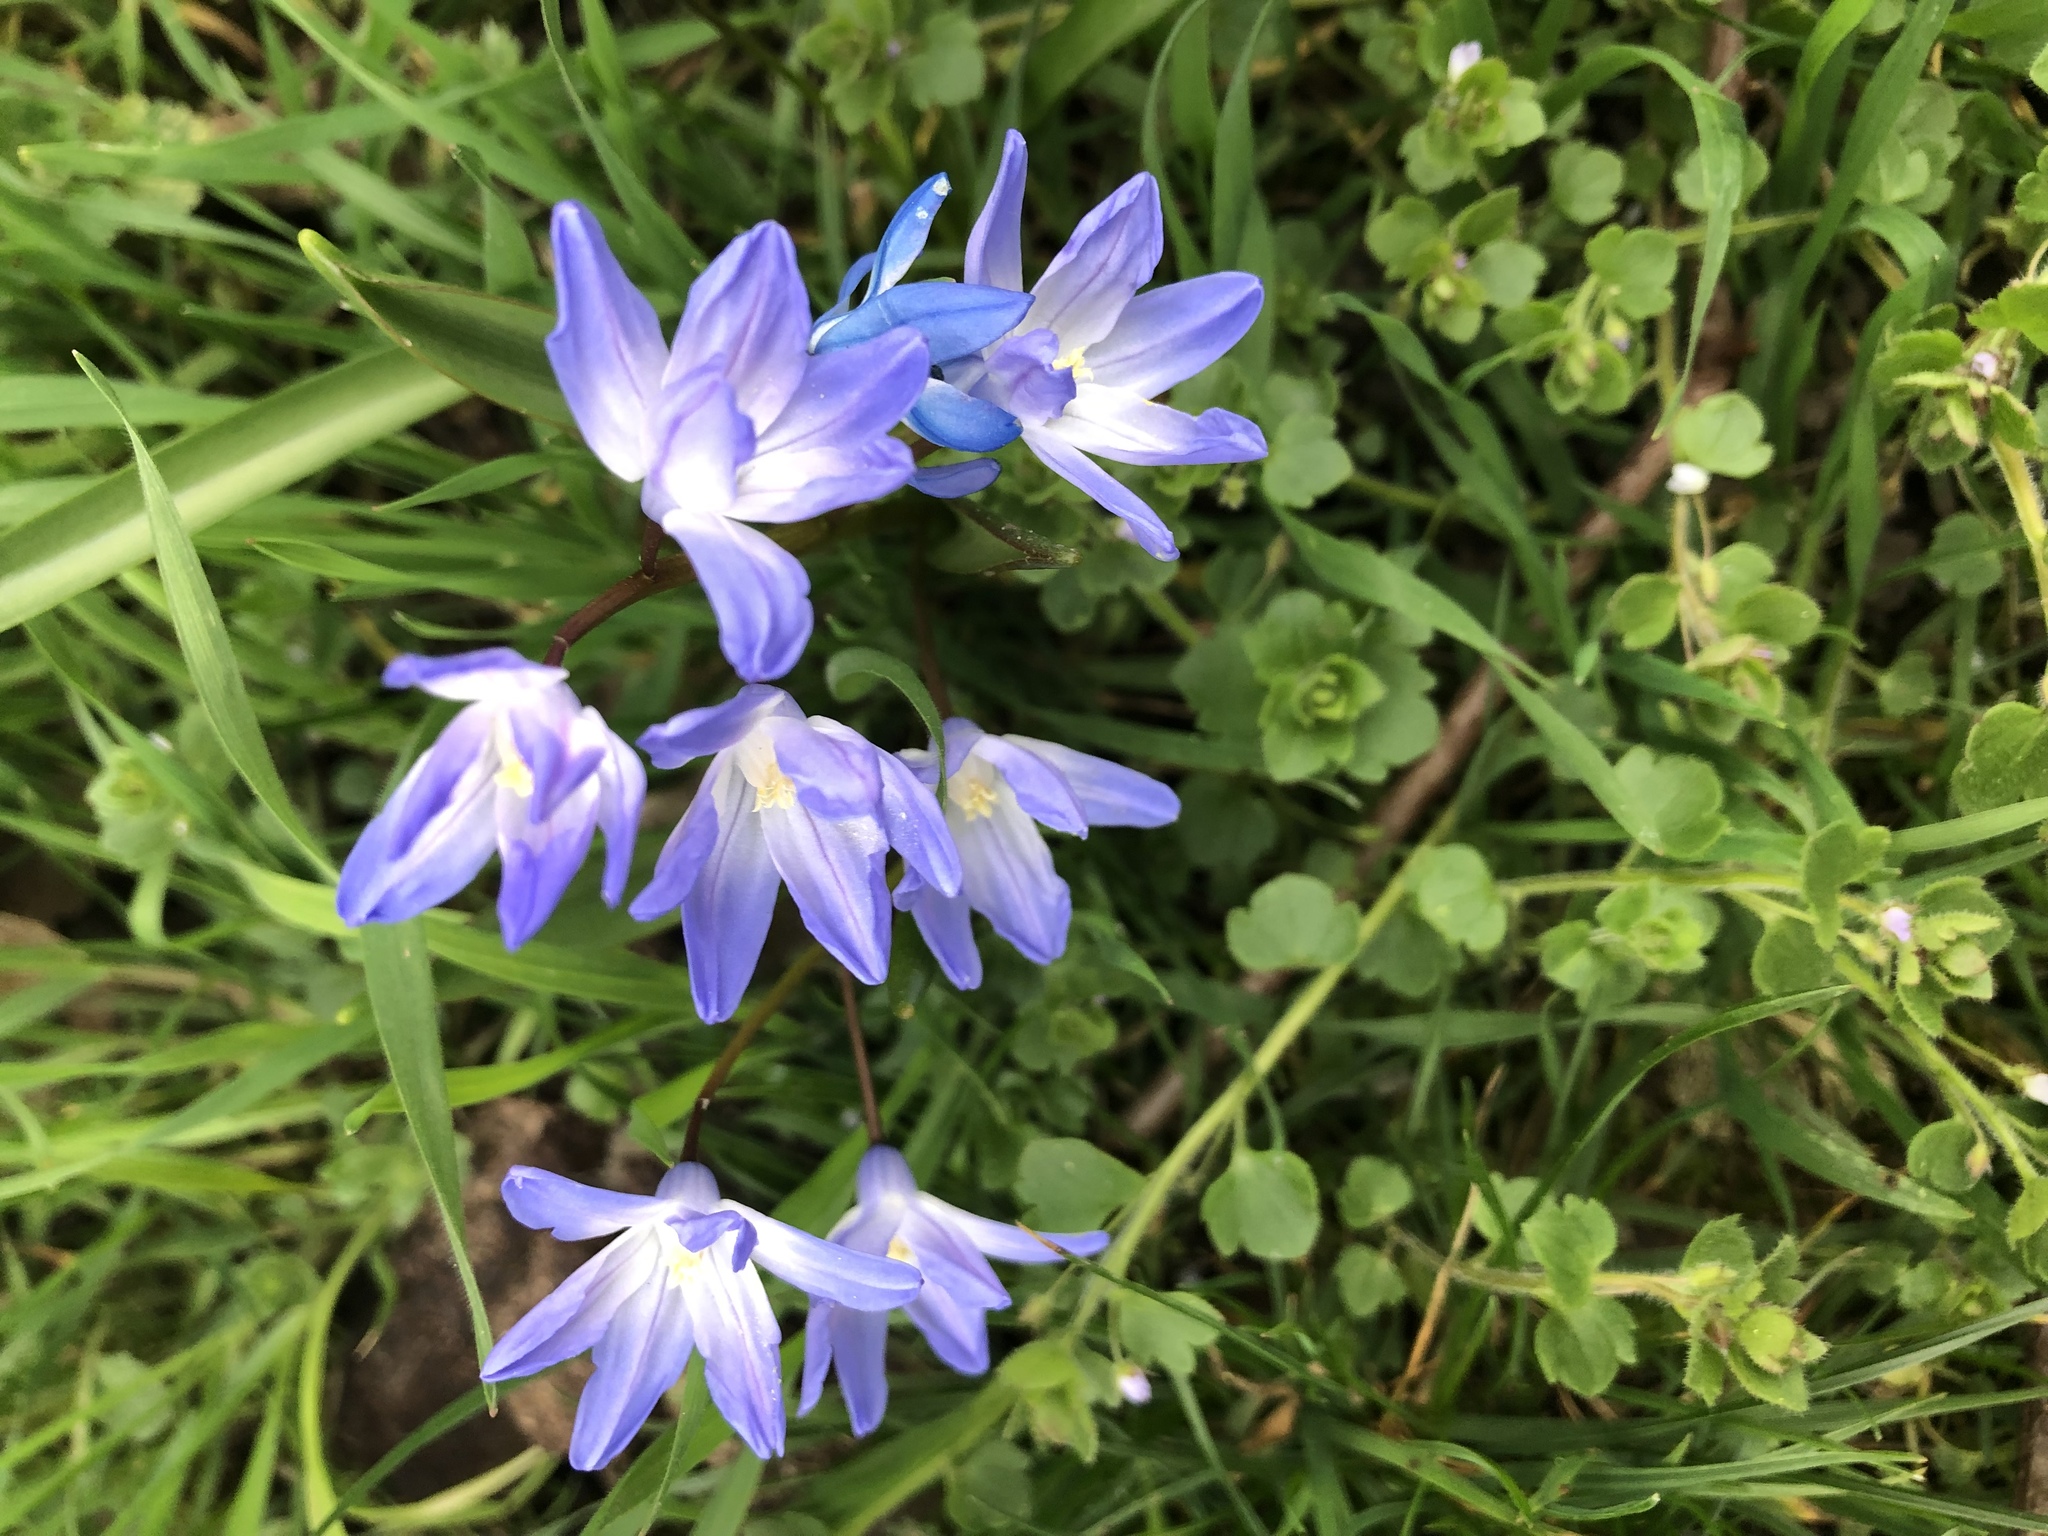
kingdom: Plantae
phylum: Tracheophyta
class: Liliopsida
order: Asparagales
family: Asparagaceae
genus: Scilla
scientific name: Scilla forbesii
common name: Glory-of-the-snow
